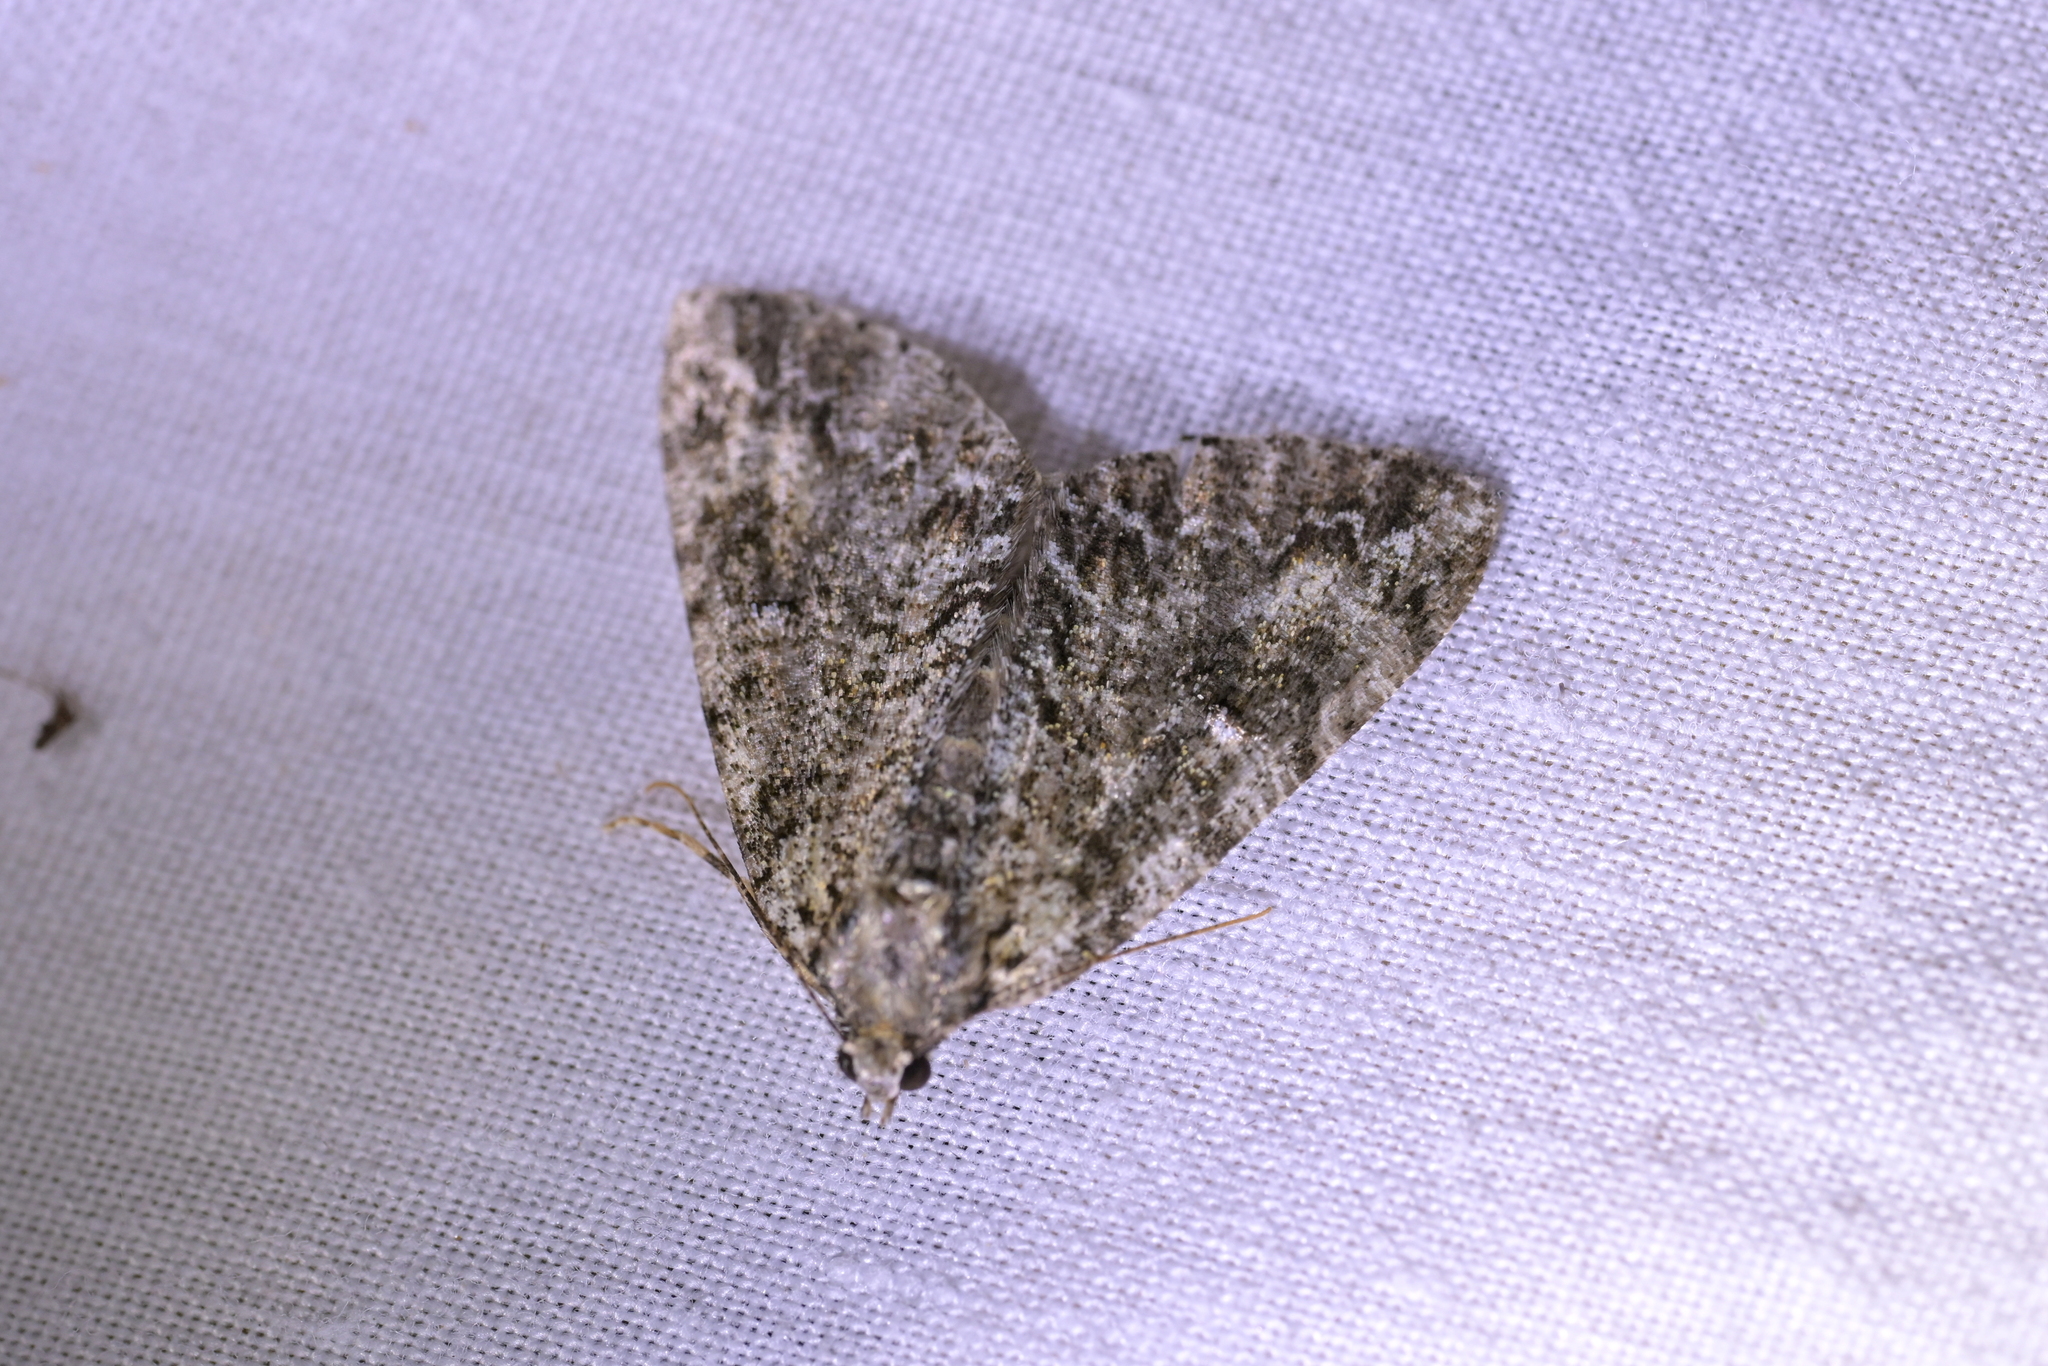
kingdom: Animalia
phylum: Arthropoda
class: Insecta
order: Lepidoptera
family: Geometridae
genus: Pseudocoremia
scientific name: Pseudocoremia suavis
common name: Common forest looper
